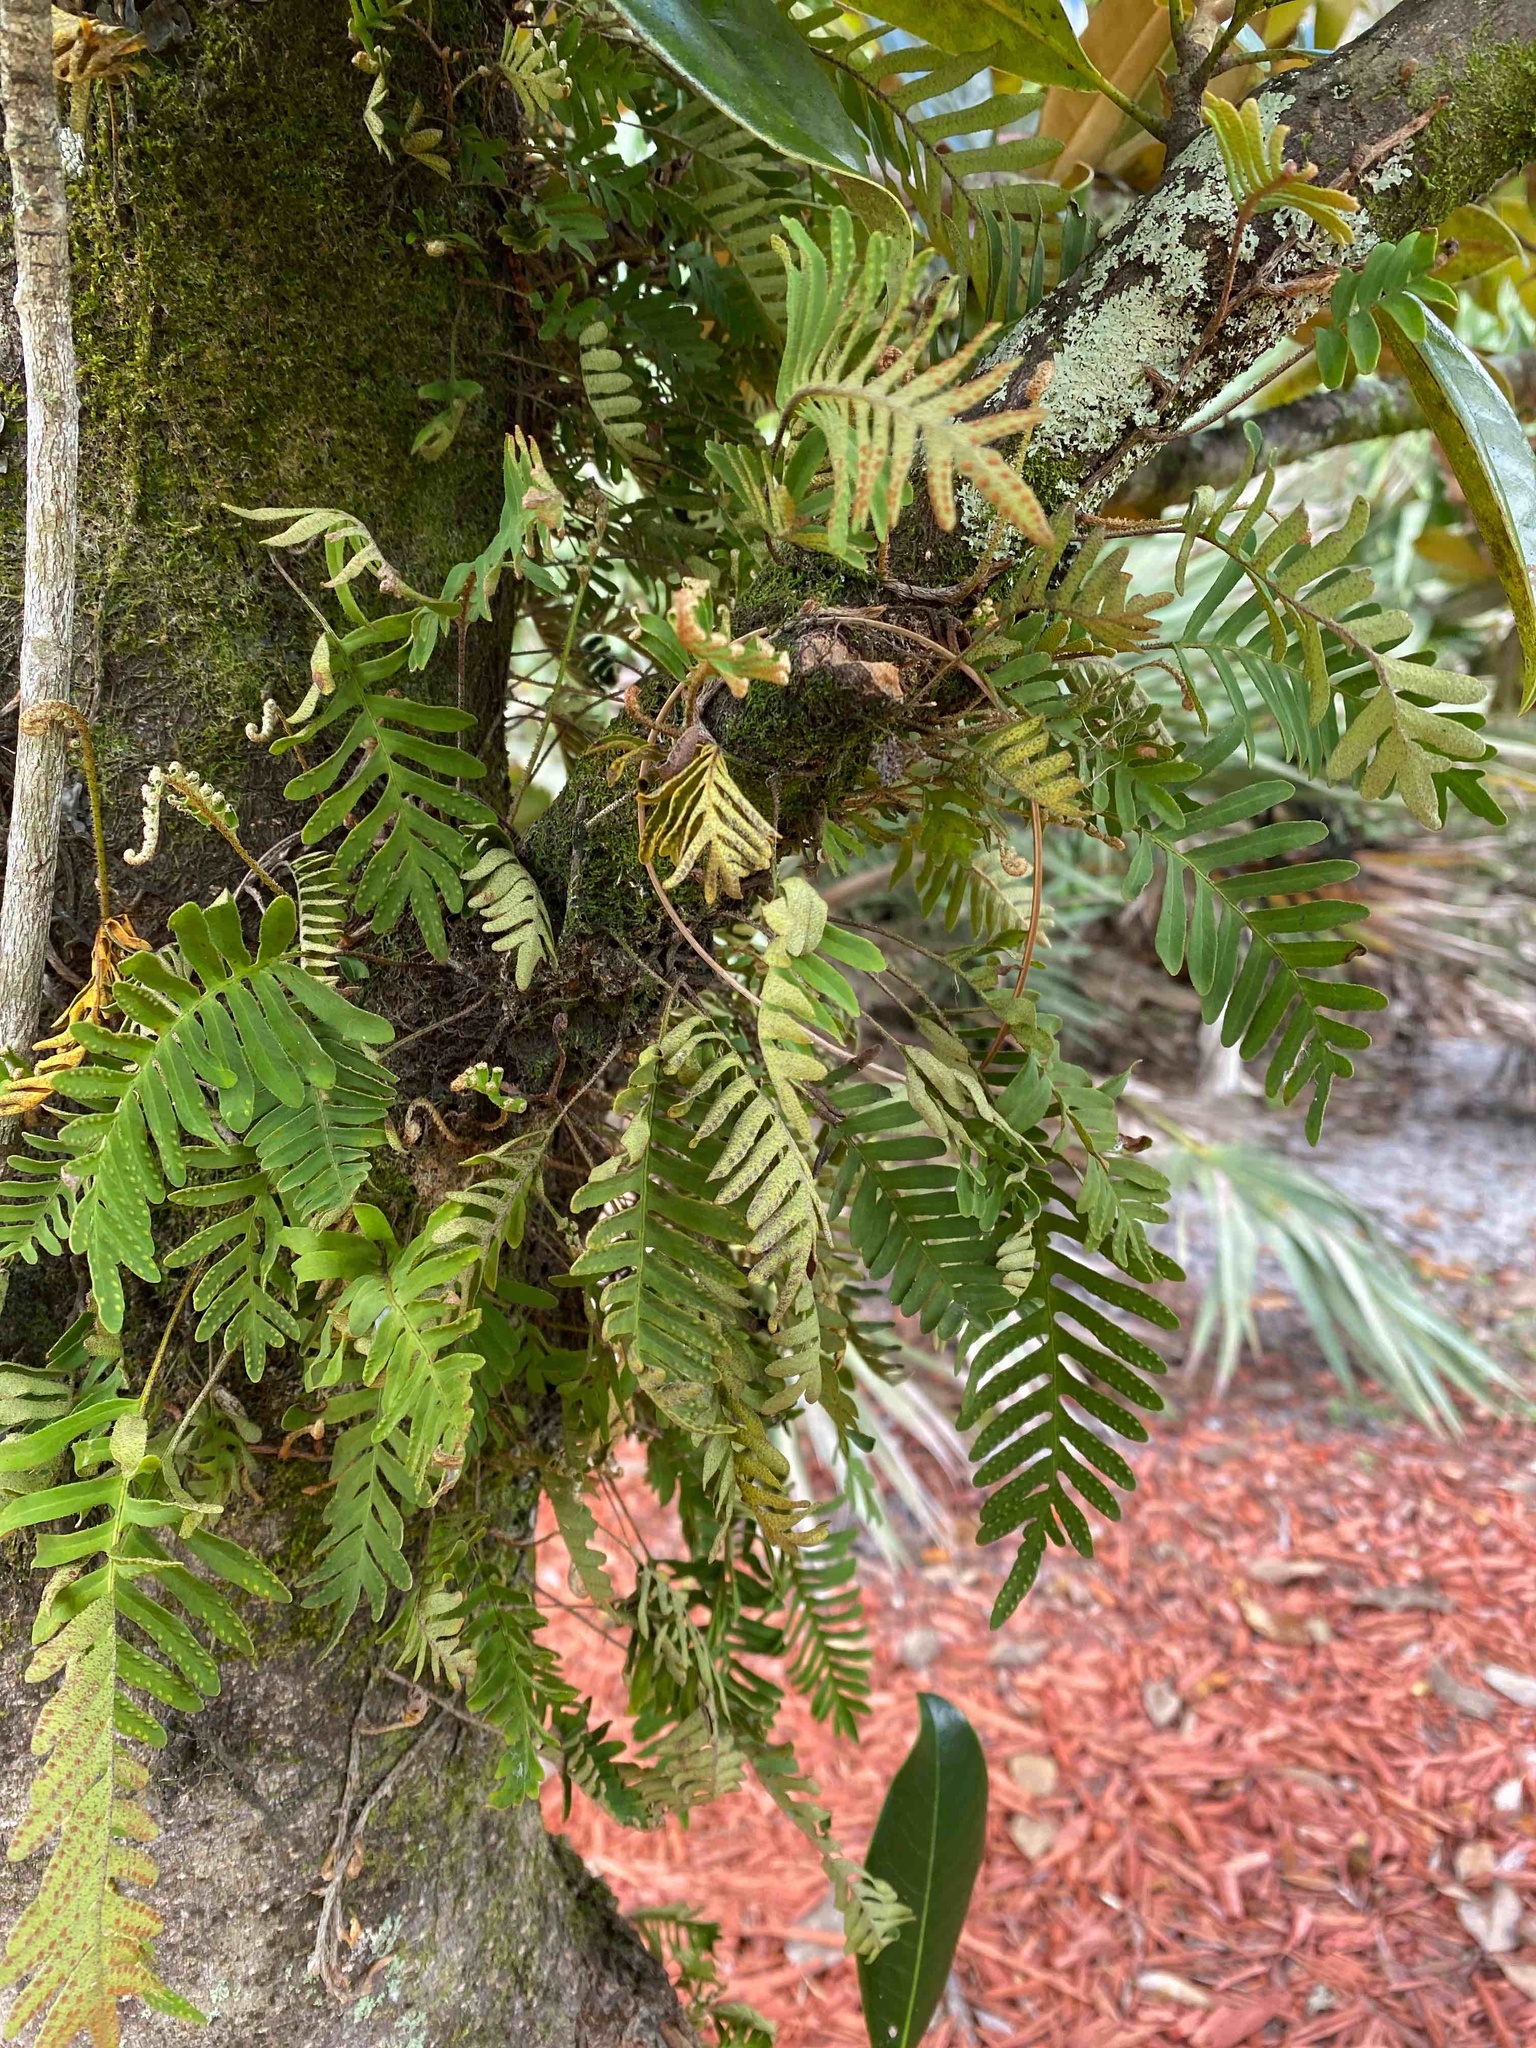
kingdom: Plantae
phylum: Tracheophyta
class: Polypodiopsida
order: Polypodiales
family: Polypodiaceae
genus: Pleopeltis
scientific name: Pleopeltis michauxiana
